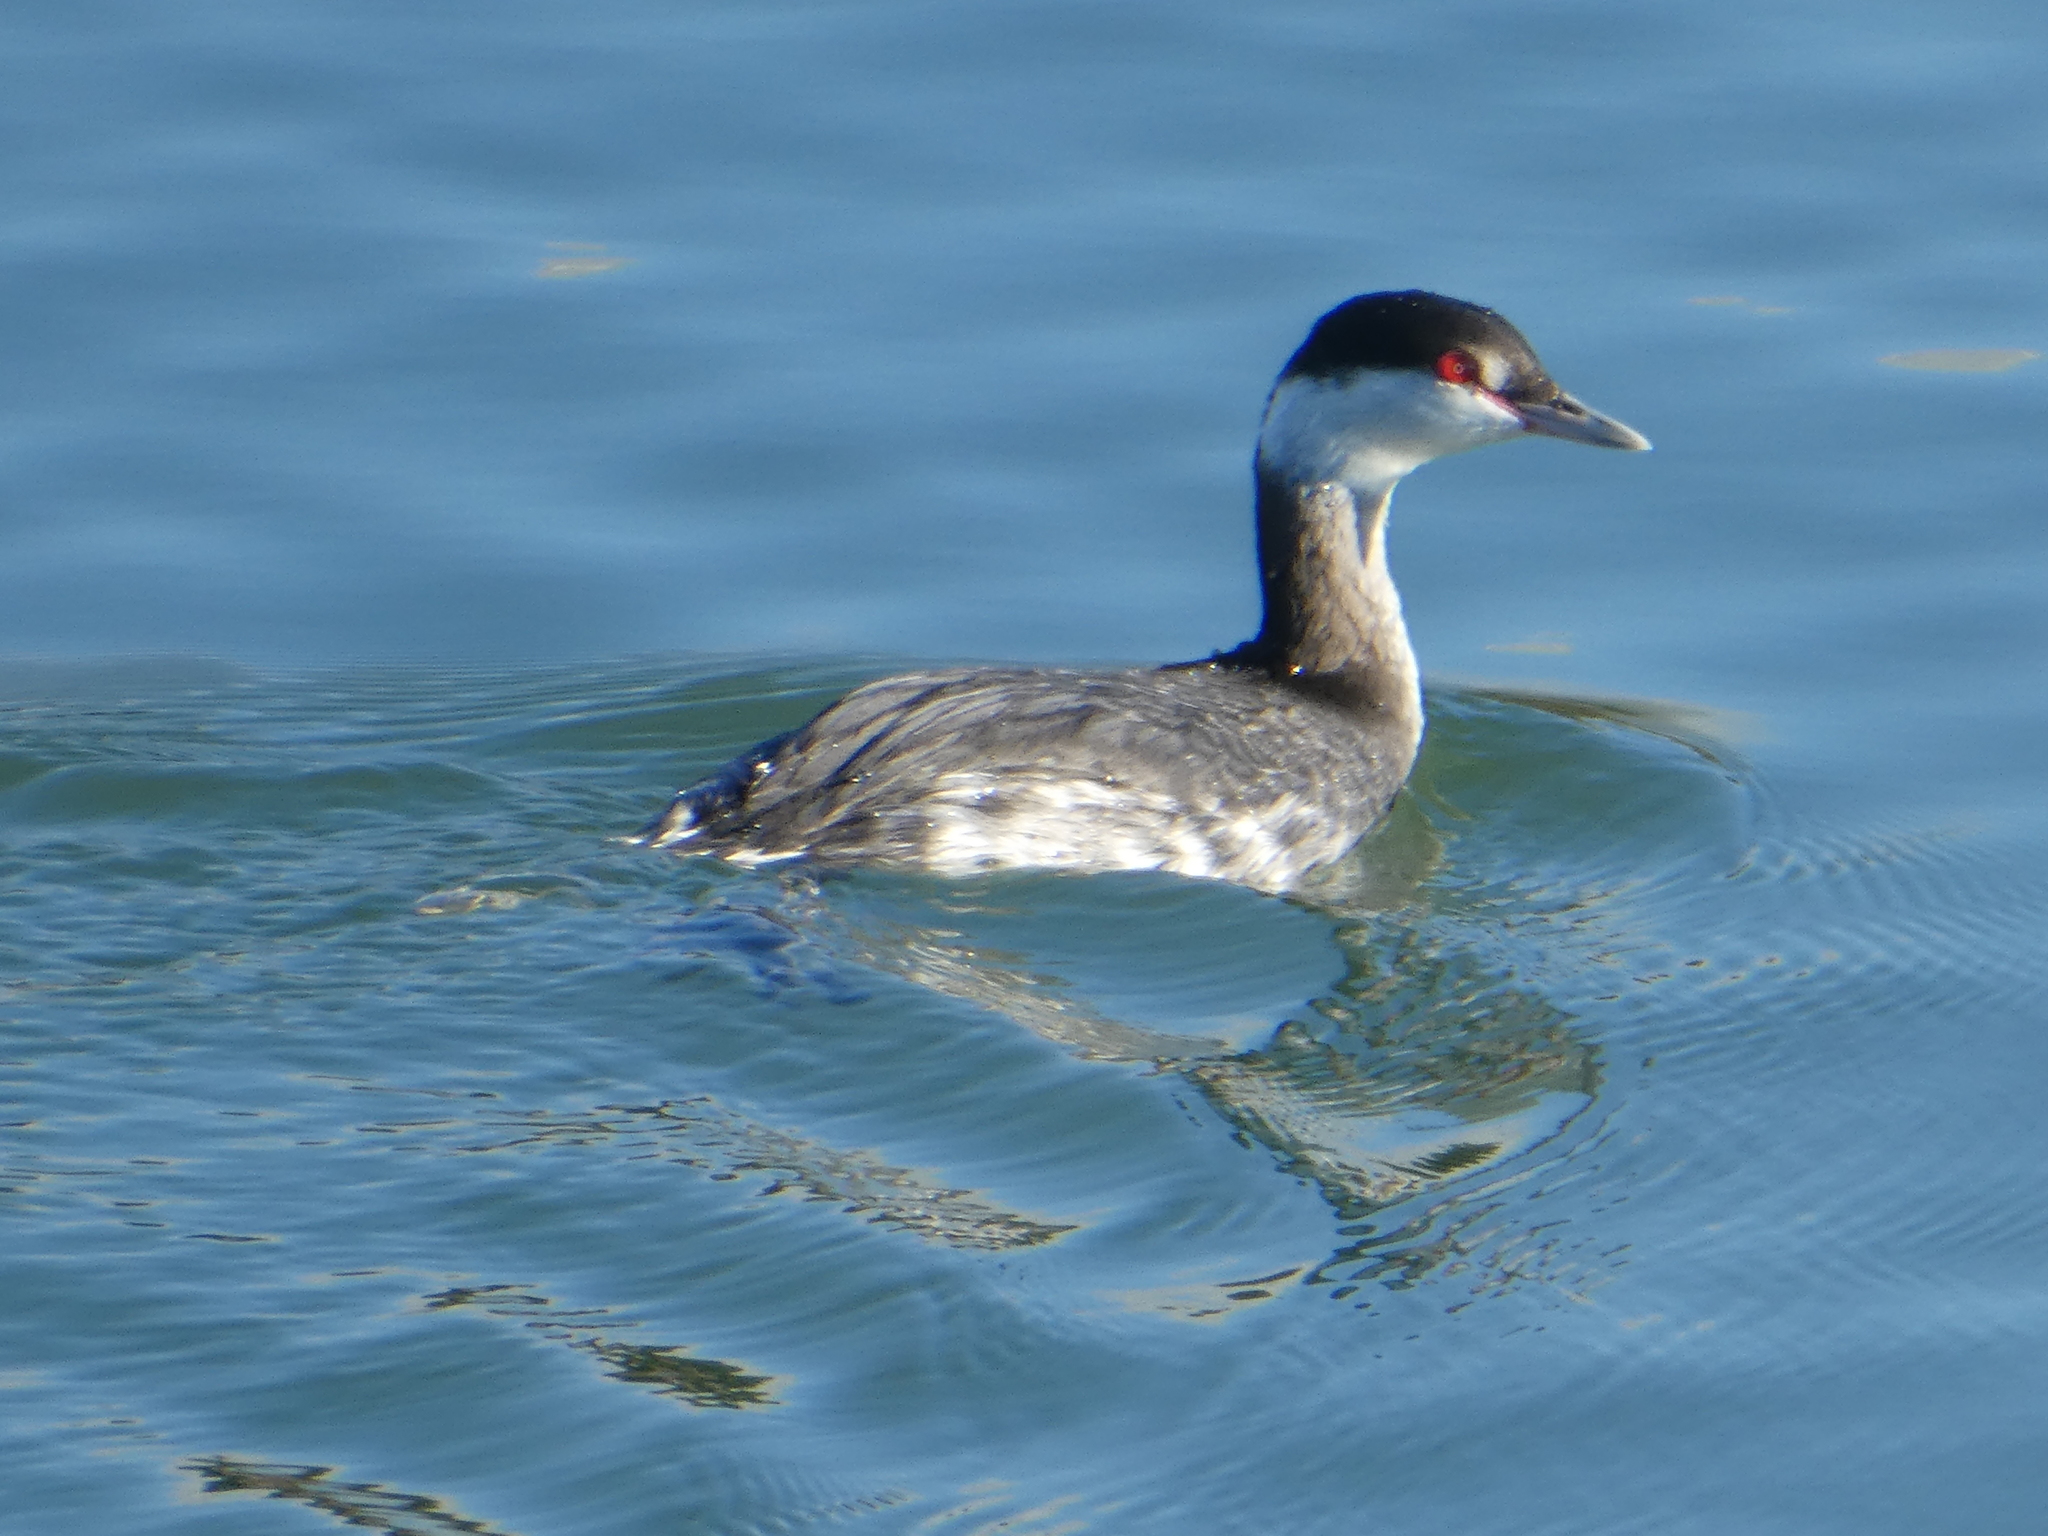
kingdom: Animalia
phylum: Chordata
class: Aves
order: Podicipediformes
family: Podicipedidae
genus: Podiceps
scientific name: Podiceps auritus
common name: Horned grebe
